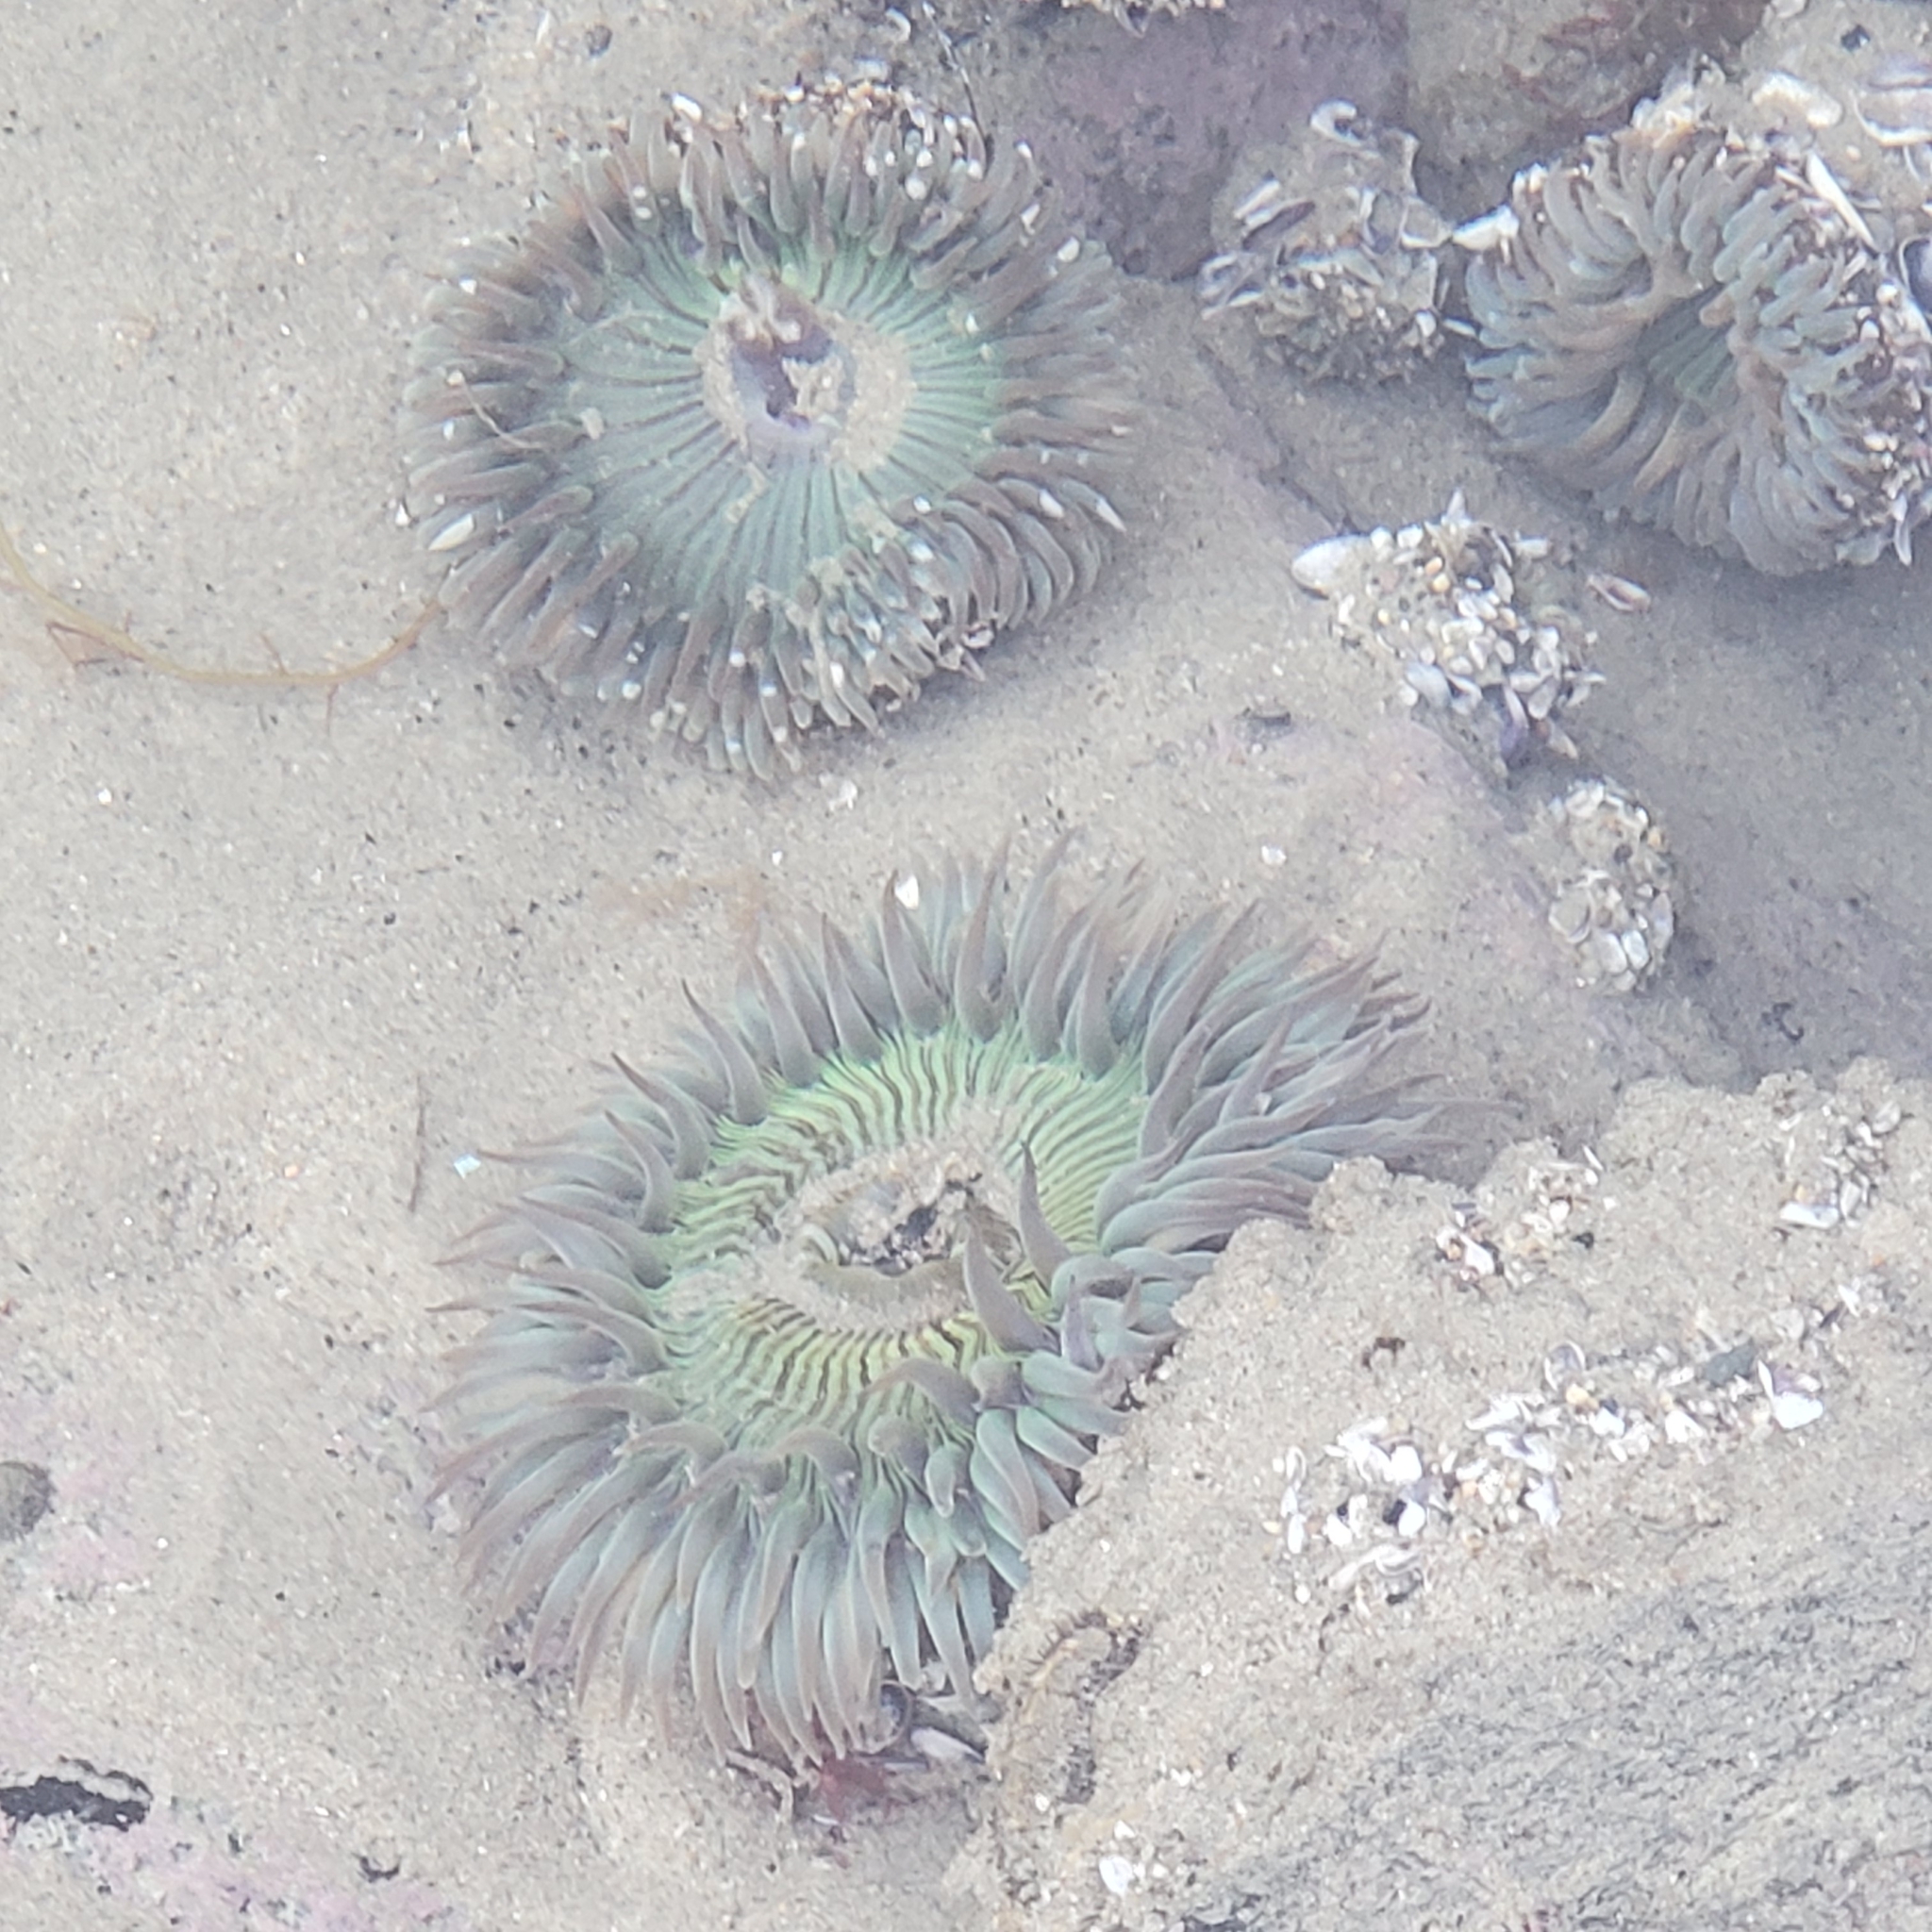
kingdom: Animalia
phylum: Cnidaria
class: Anthozoa
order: Actiniaria
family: Actiniidae
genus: Anthopleura
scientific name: Anthopleura sola
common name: Sun anemone
